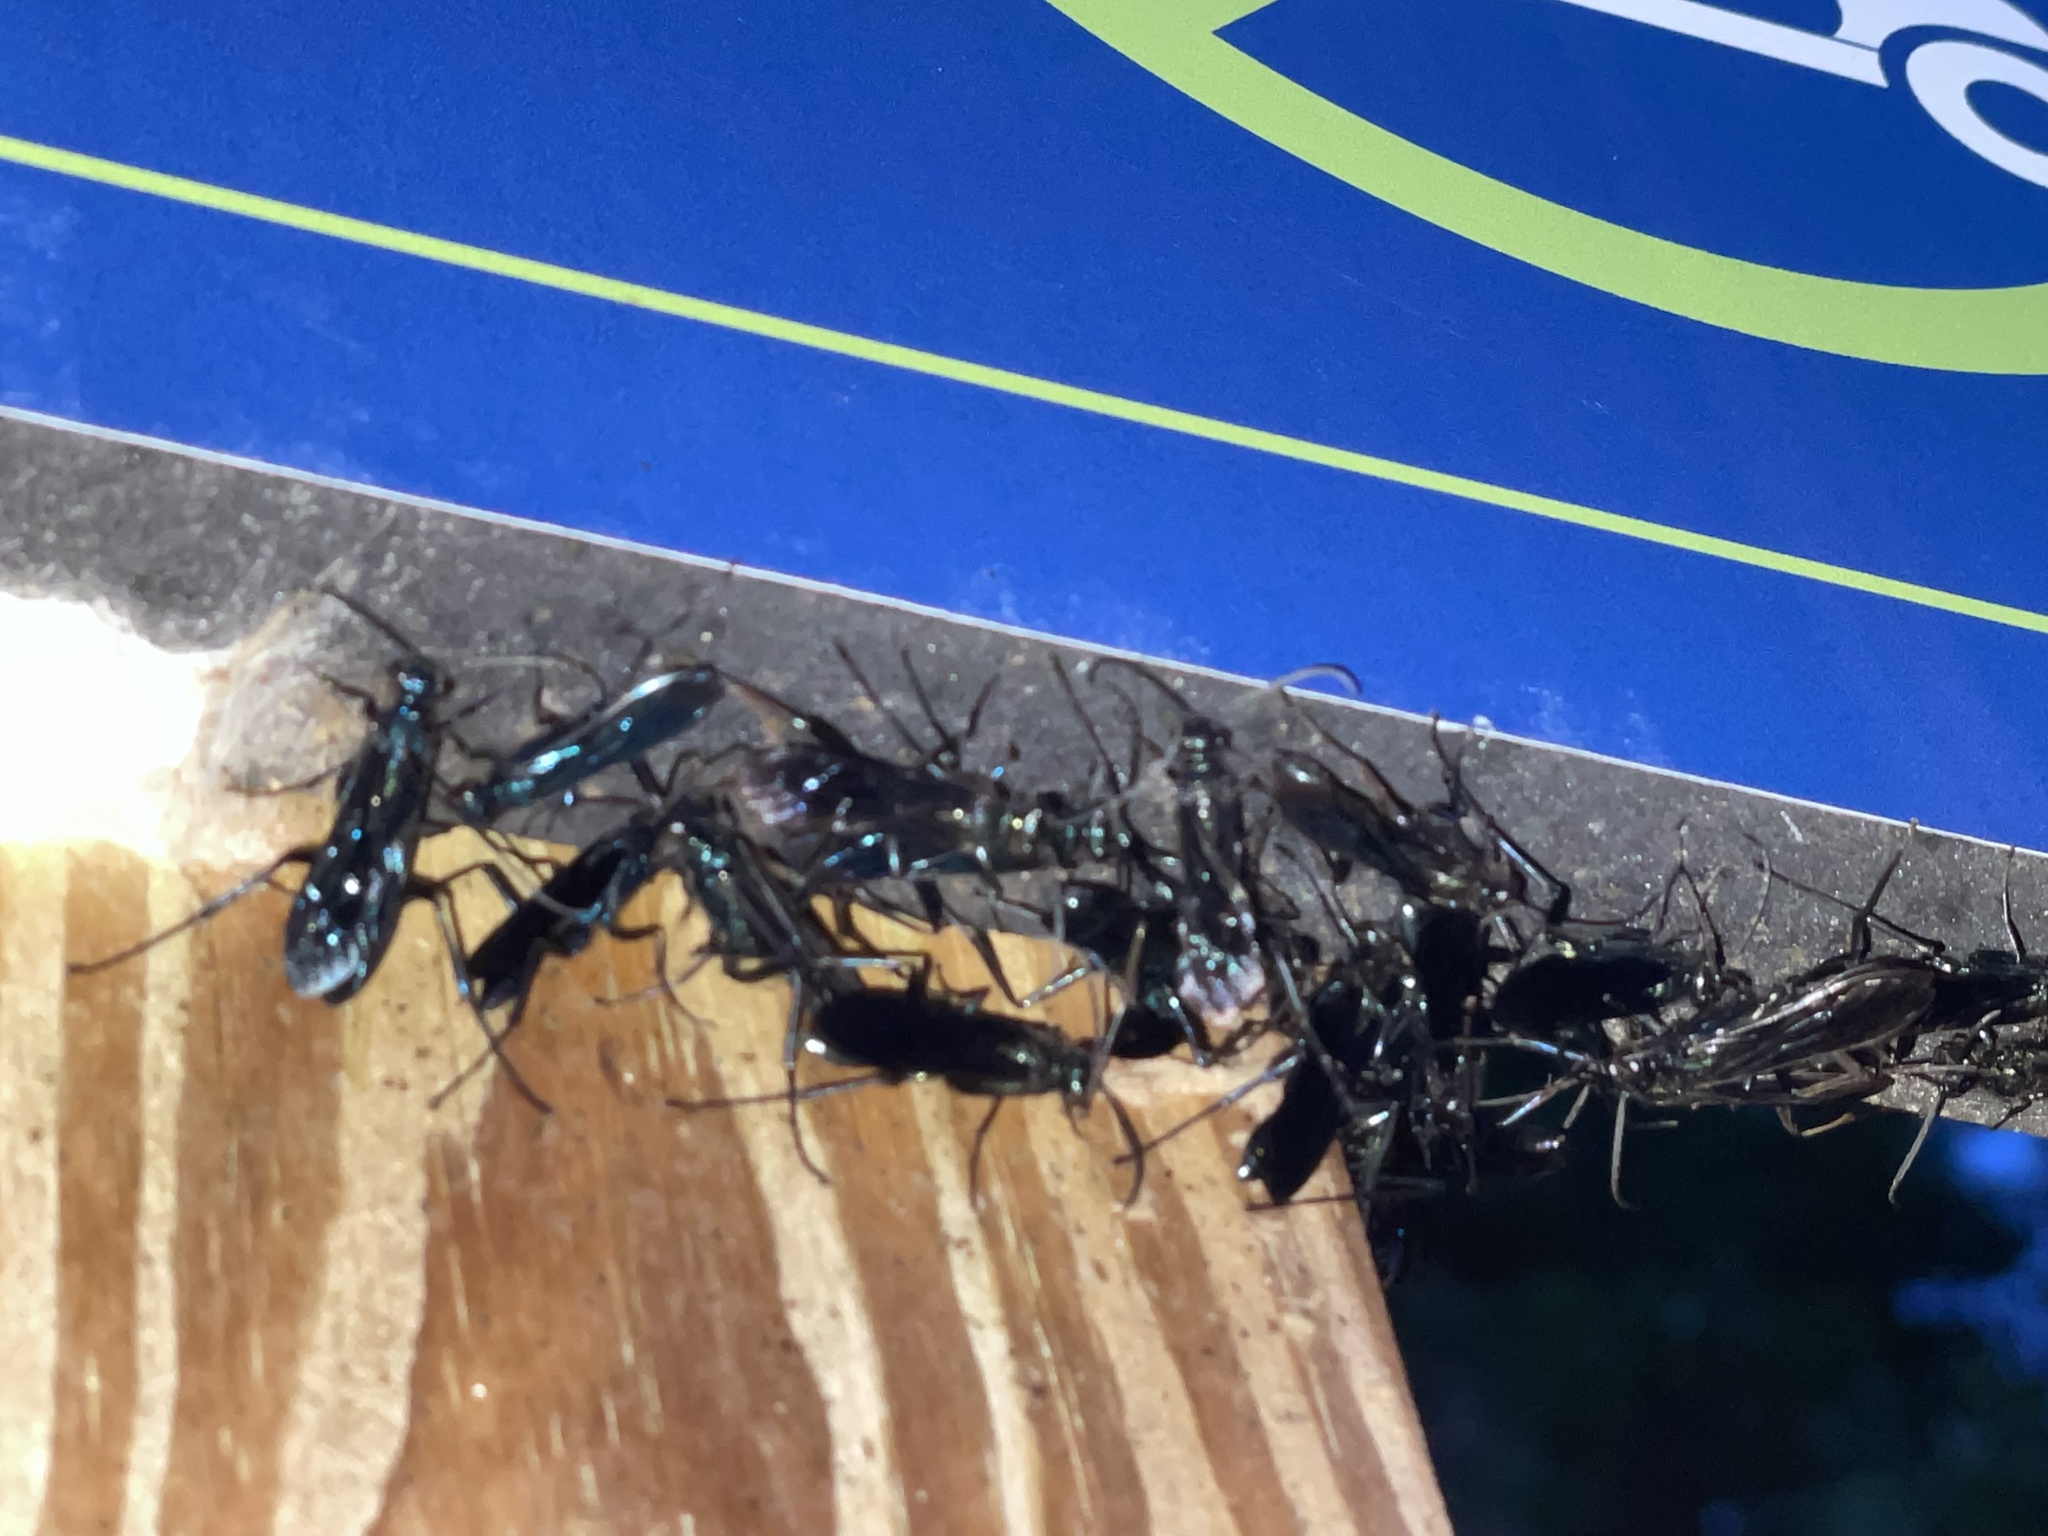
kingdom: Animalia
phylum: Arthropoda
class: Insecta
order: Hymenoptera
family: Sphecidae
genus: Chalybion
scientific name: Chalybion californicum
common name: Mud dauber
